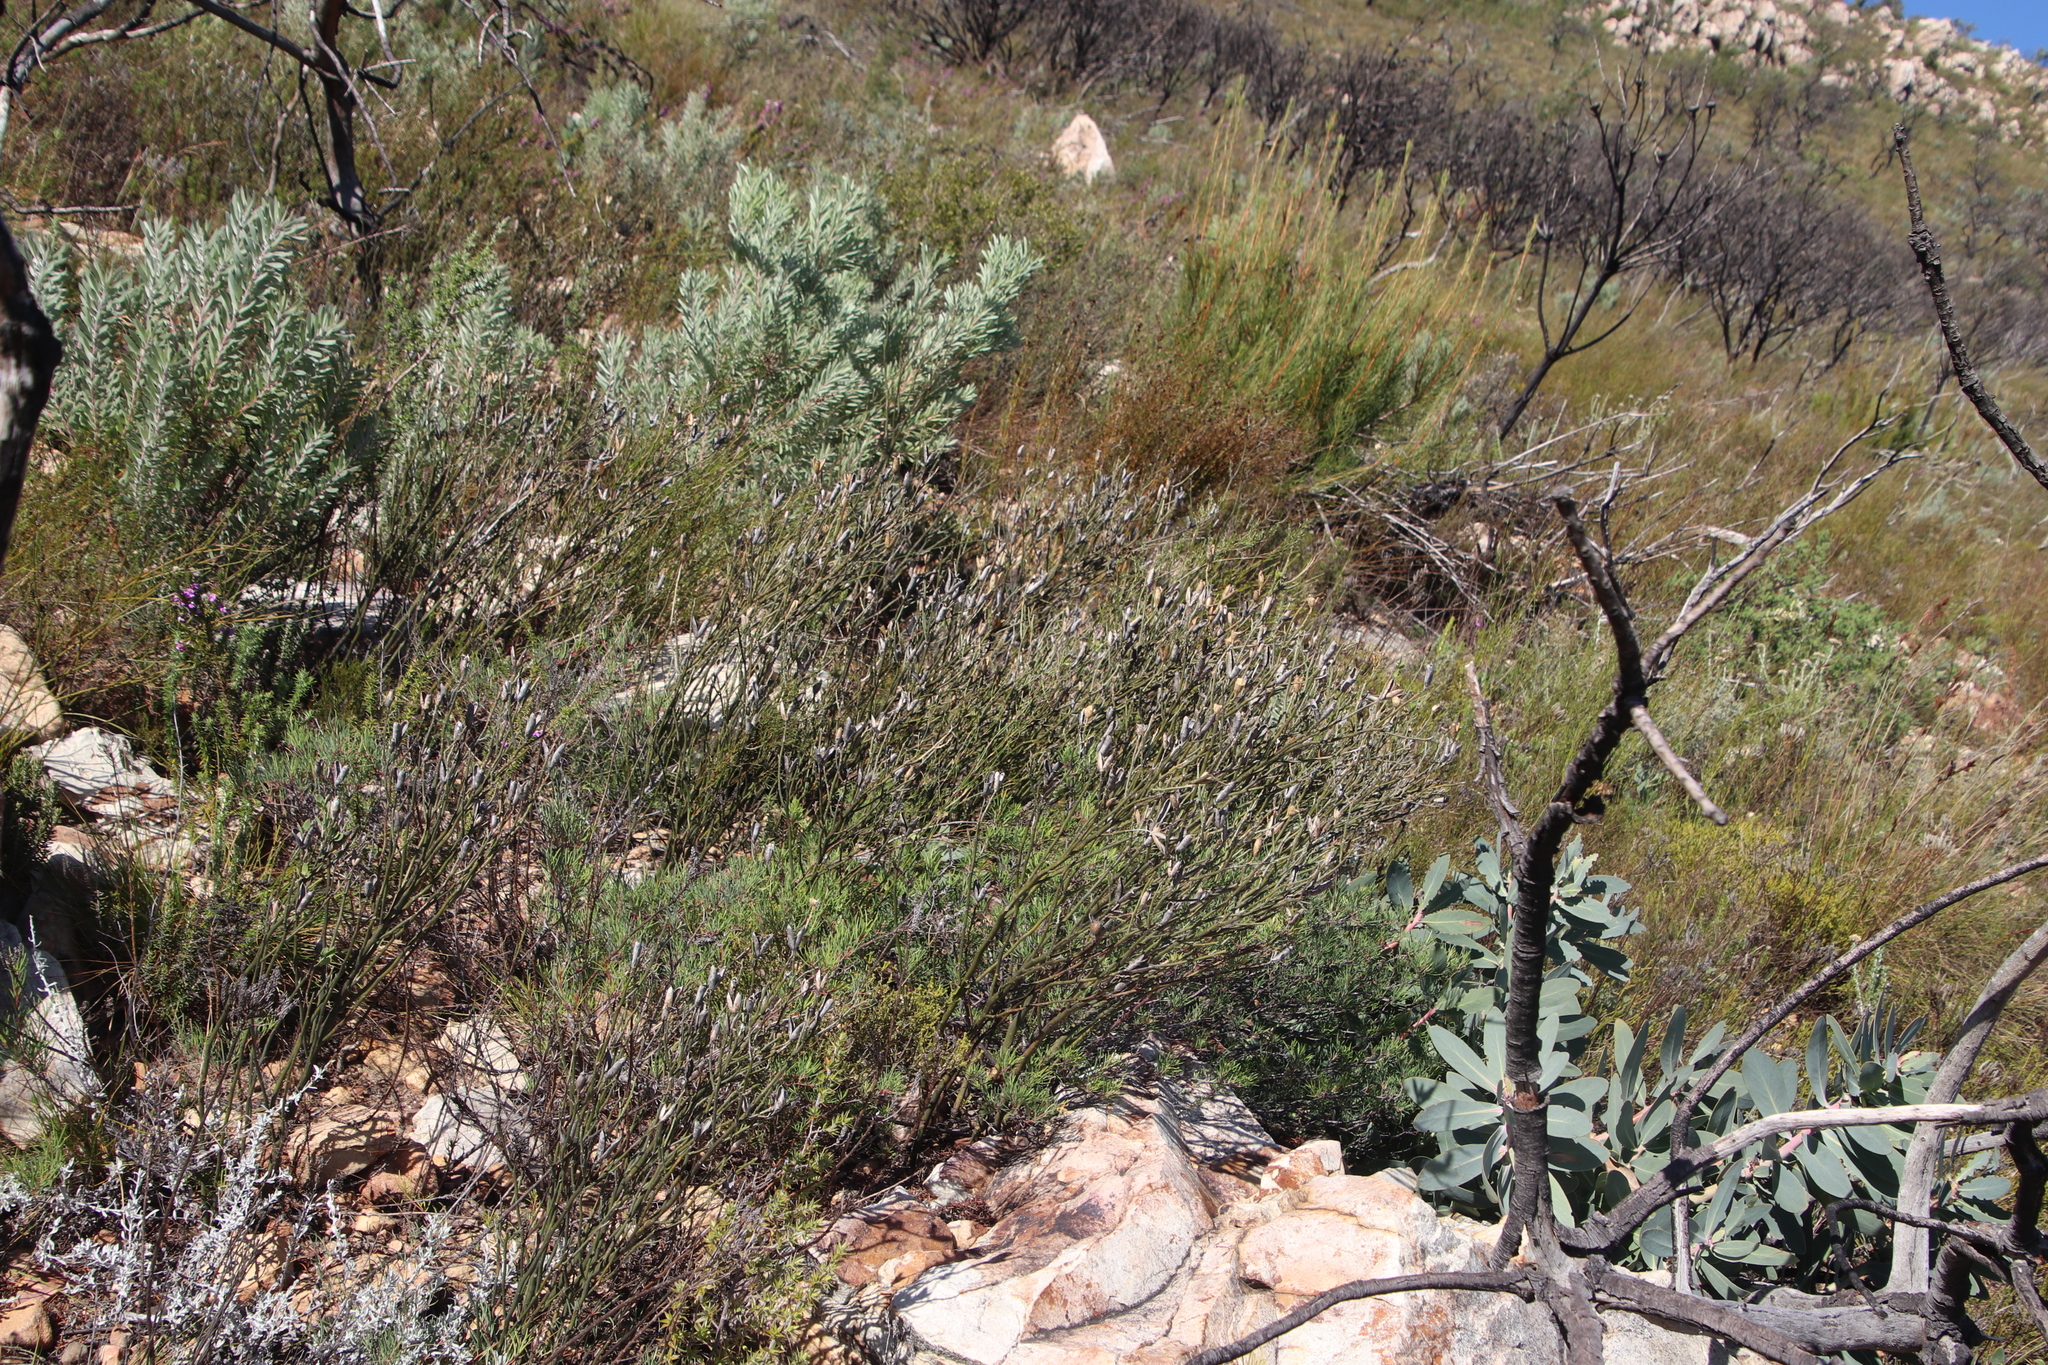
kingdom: Plantae
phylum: Tracheophyta
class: Magnoliopsida
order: Solanales
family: Montiniaceae
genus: Montinia
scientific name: Montinia caryophyllacea
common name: Wild clove-bush
